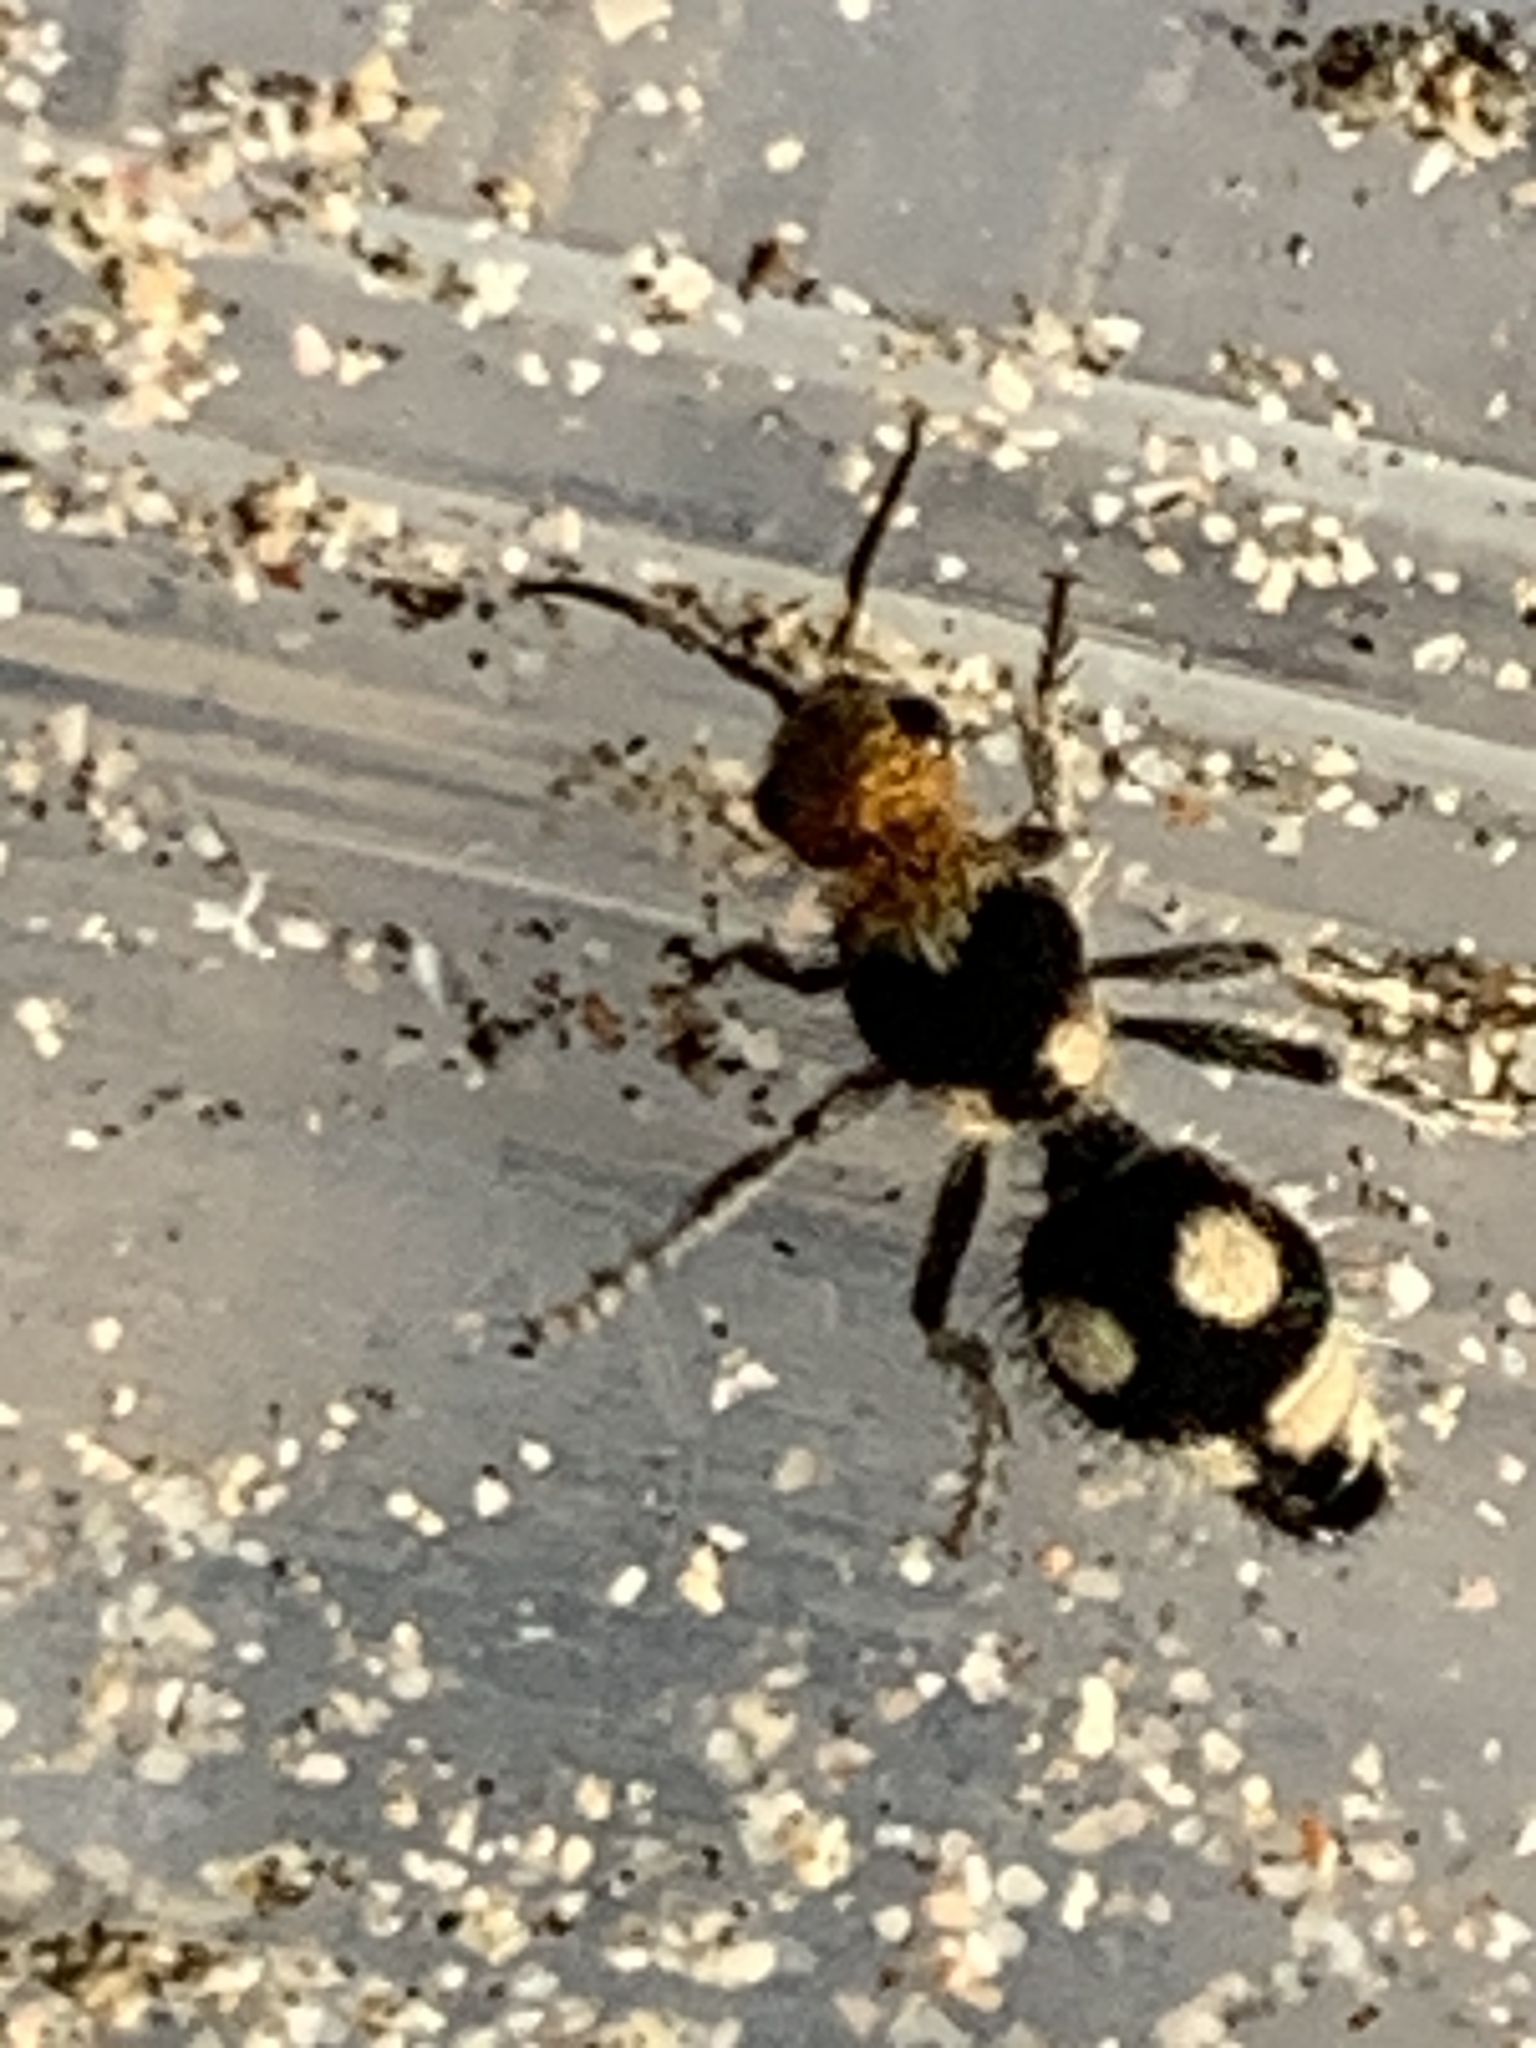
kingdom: Animalia
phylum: Arthropoda
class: Insecta
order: Hymenoptera
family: Mutillidae
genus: Dasymutilla
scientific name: Dasymutilla araneoides
